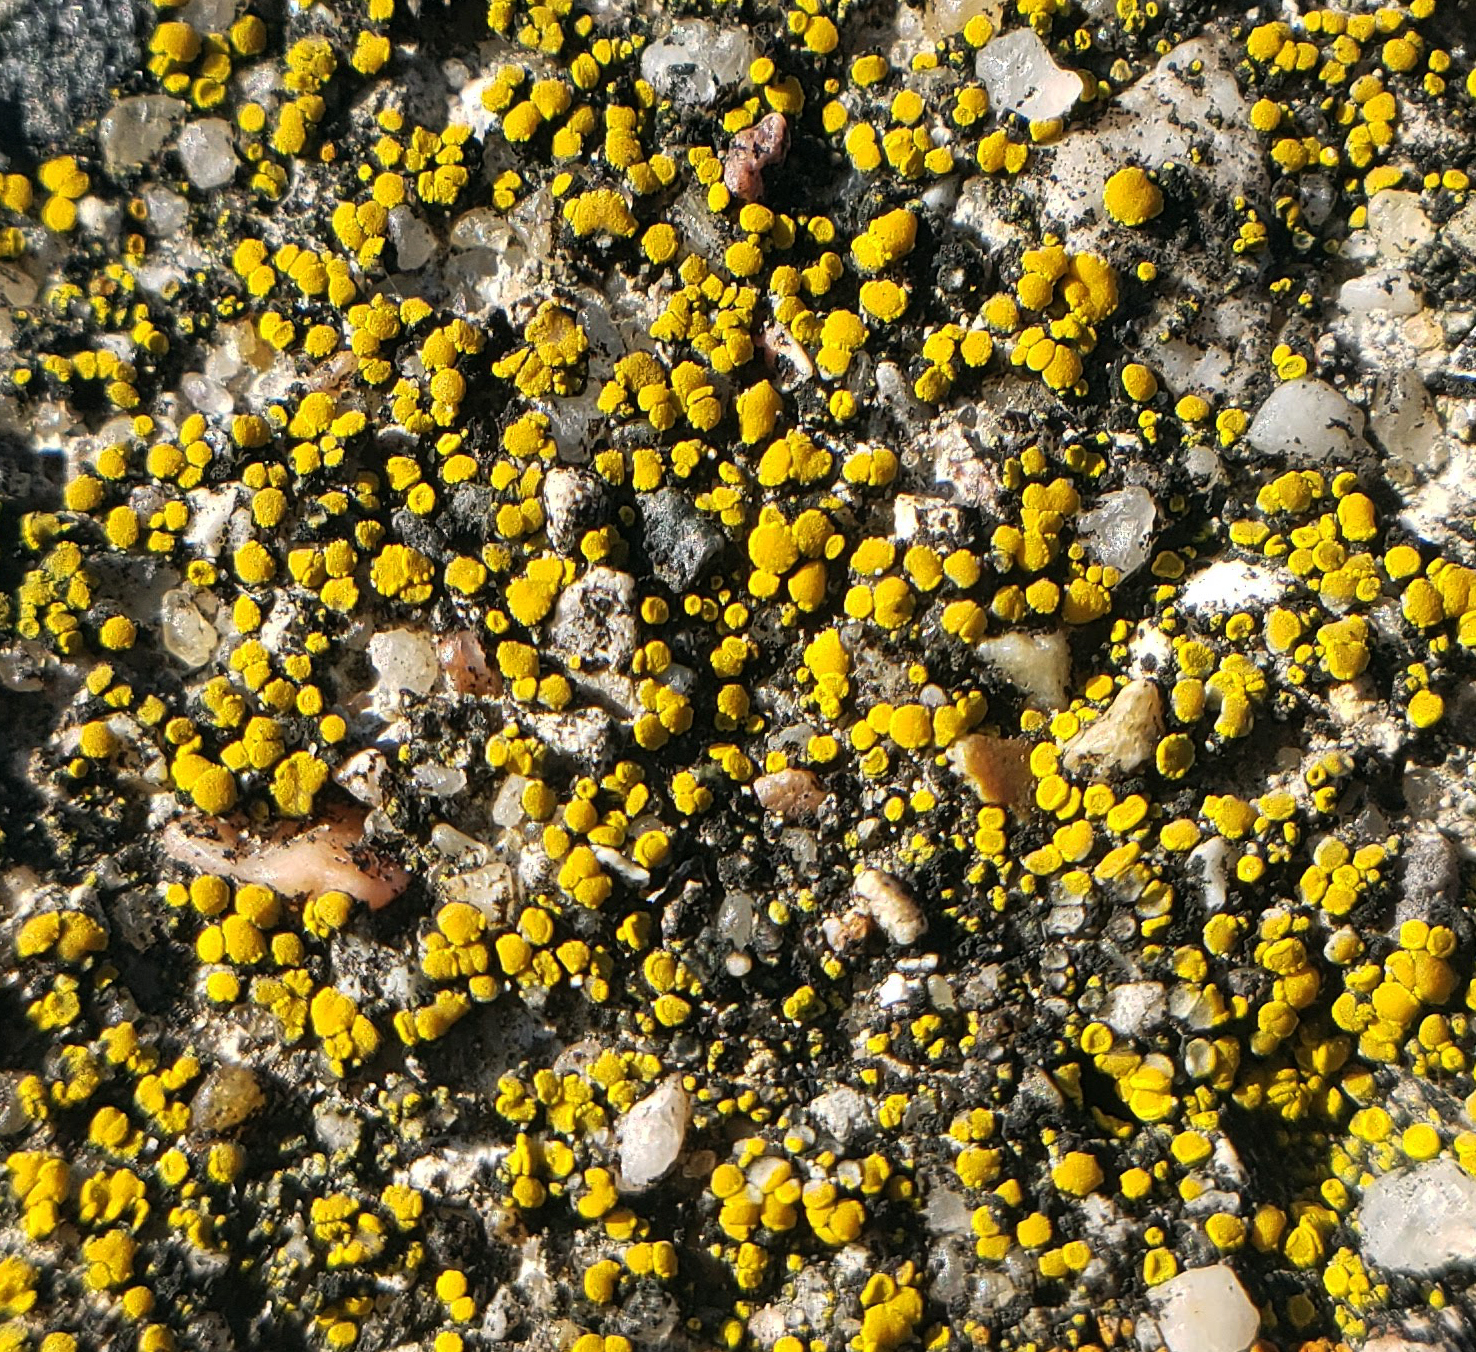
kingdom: Fungi
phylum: Ascomycota
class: Candelariomycetes
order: Candelariales
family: Candelariaceae
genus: Candelariella
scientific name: Candelariella aurella
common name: Hidden goldspeck lichen
